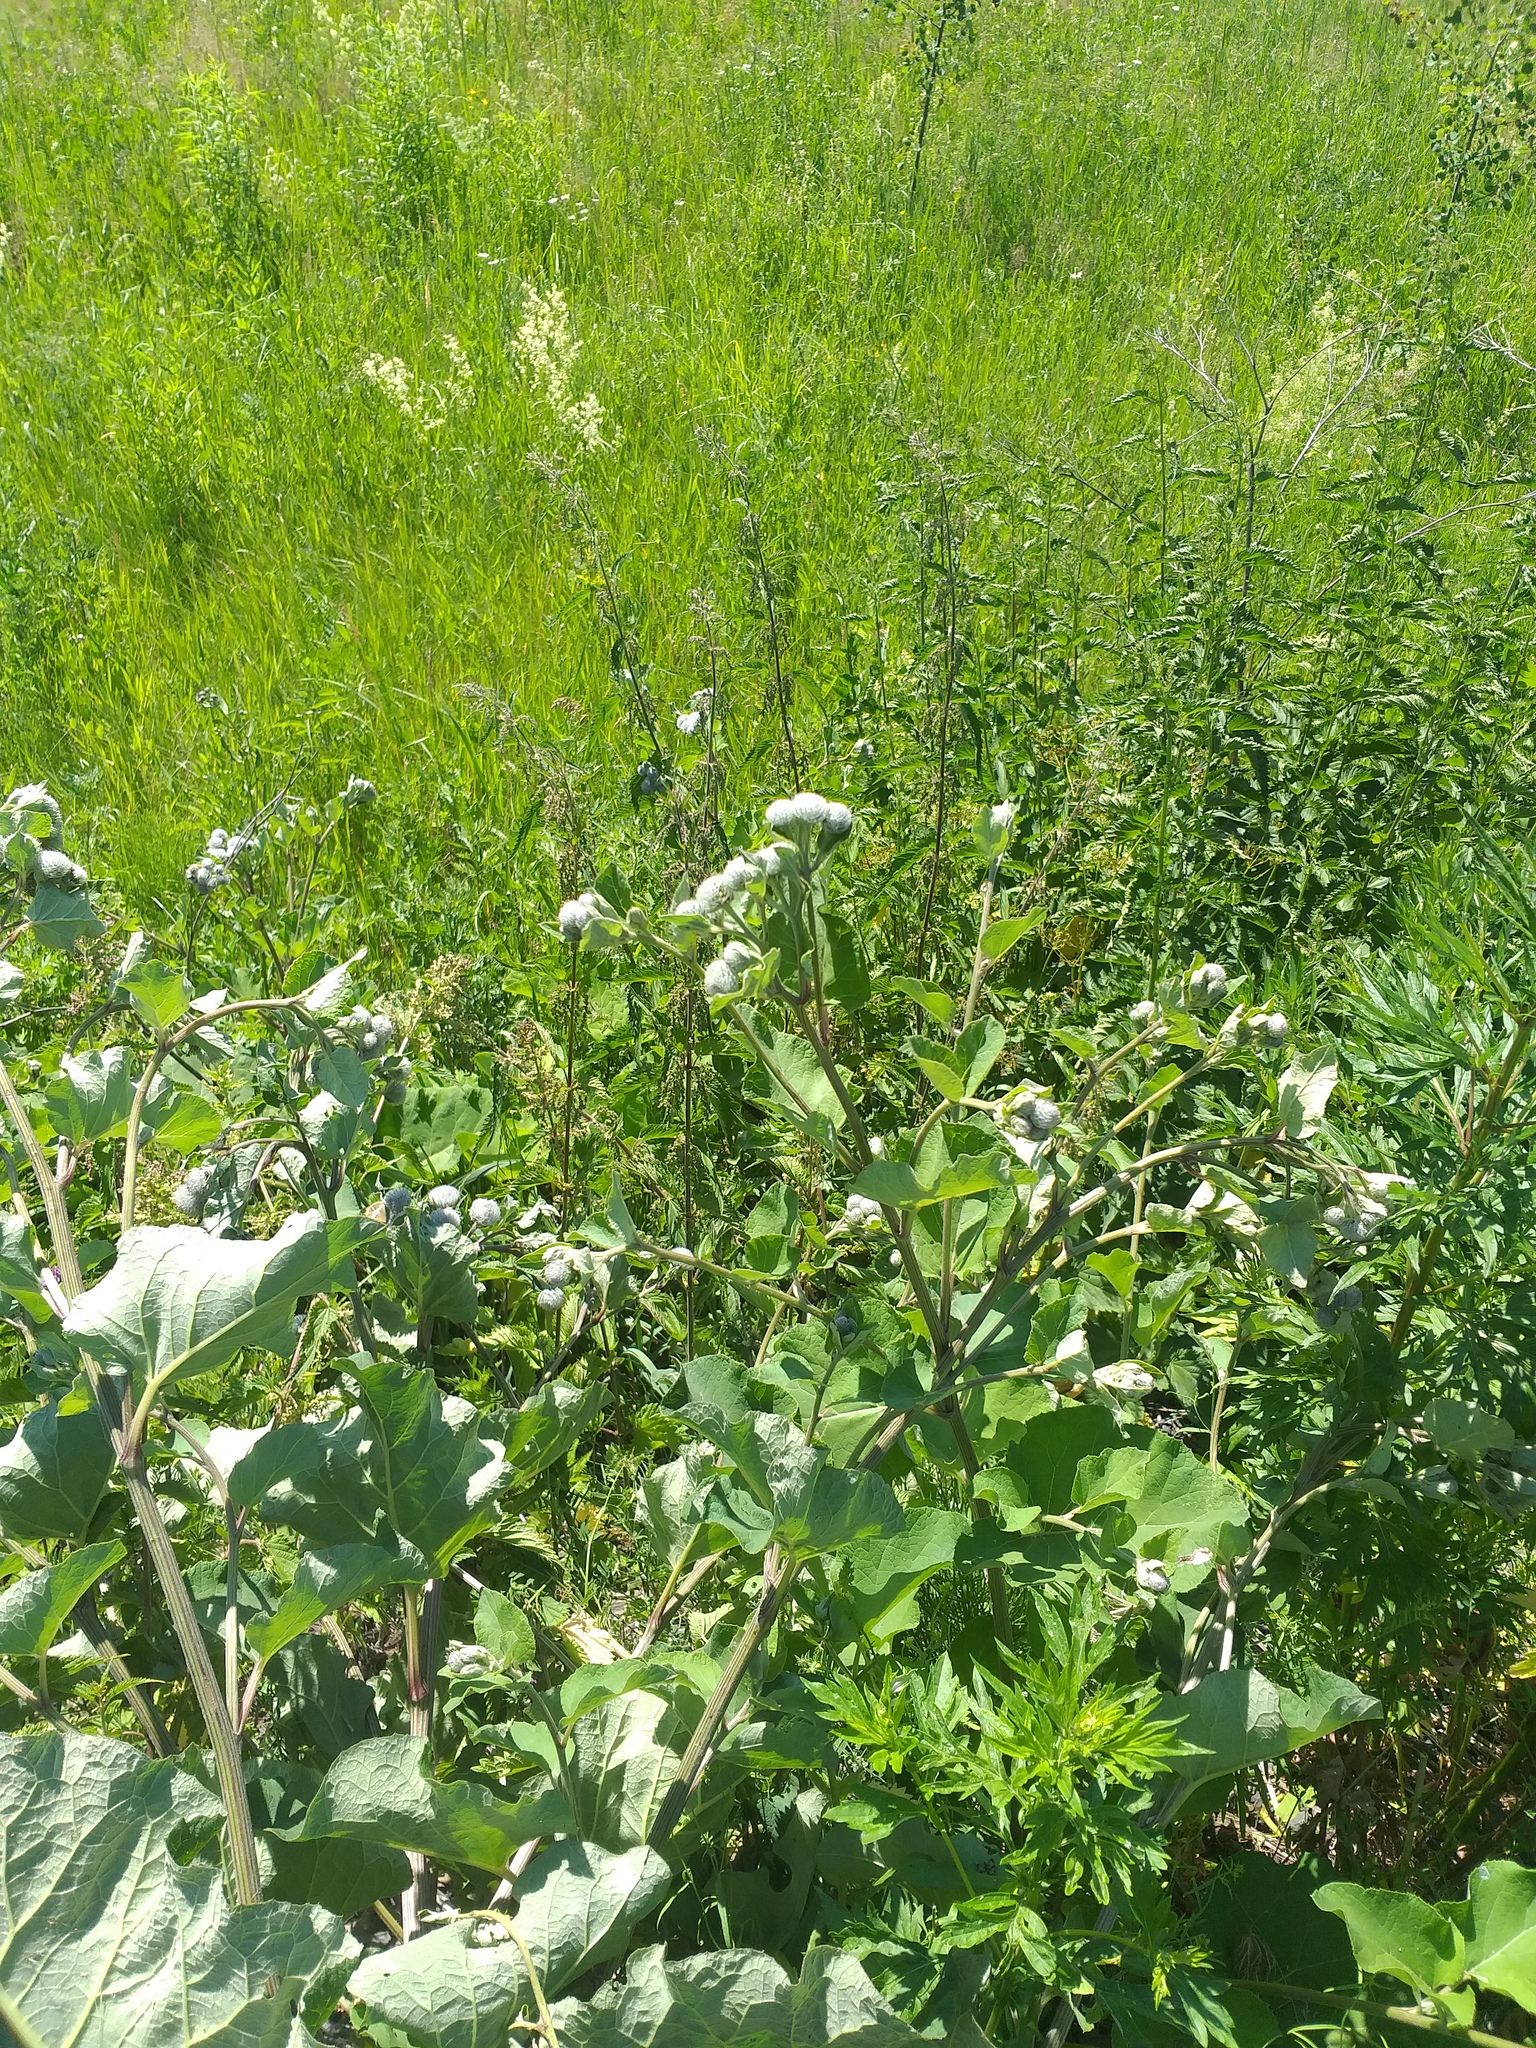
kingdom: Plantae
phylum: Tracheophyta
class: Magnoliopsida
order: Asterales
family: Asteraceae
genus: Arctium
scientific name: Arctium tomentosum
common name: Woolly burdock
